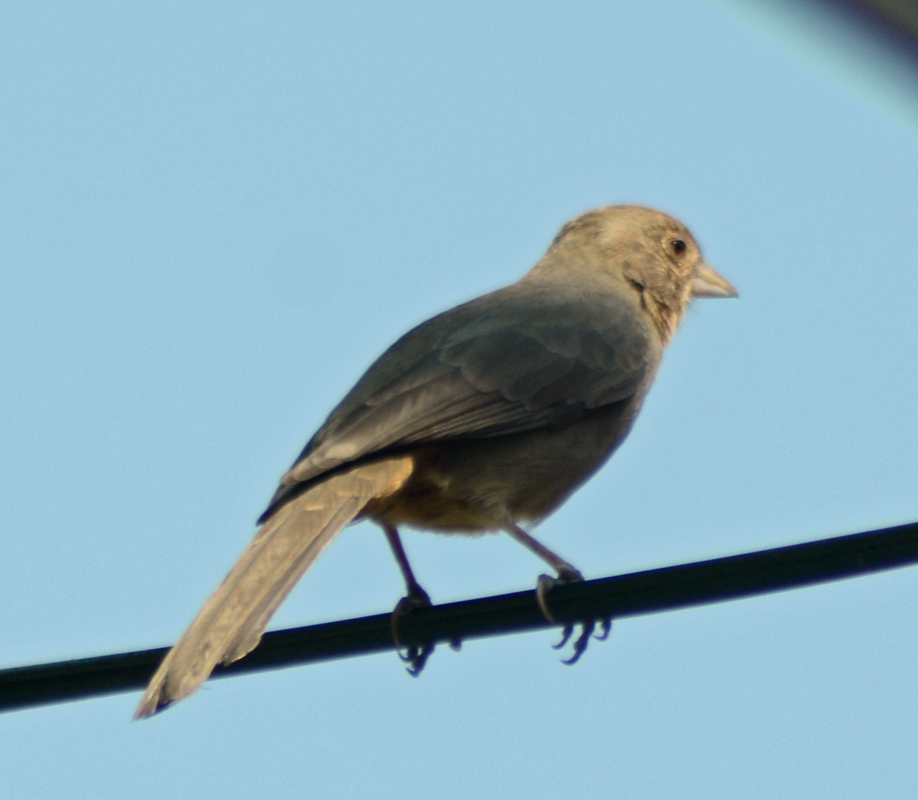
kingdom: Animalia
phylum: Chordata
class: Aves
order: Passeriformes
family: Passerellidae
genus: Melozone
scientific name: Melozone fusca
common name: Canyon towhee
